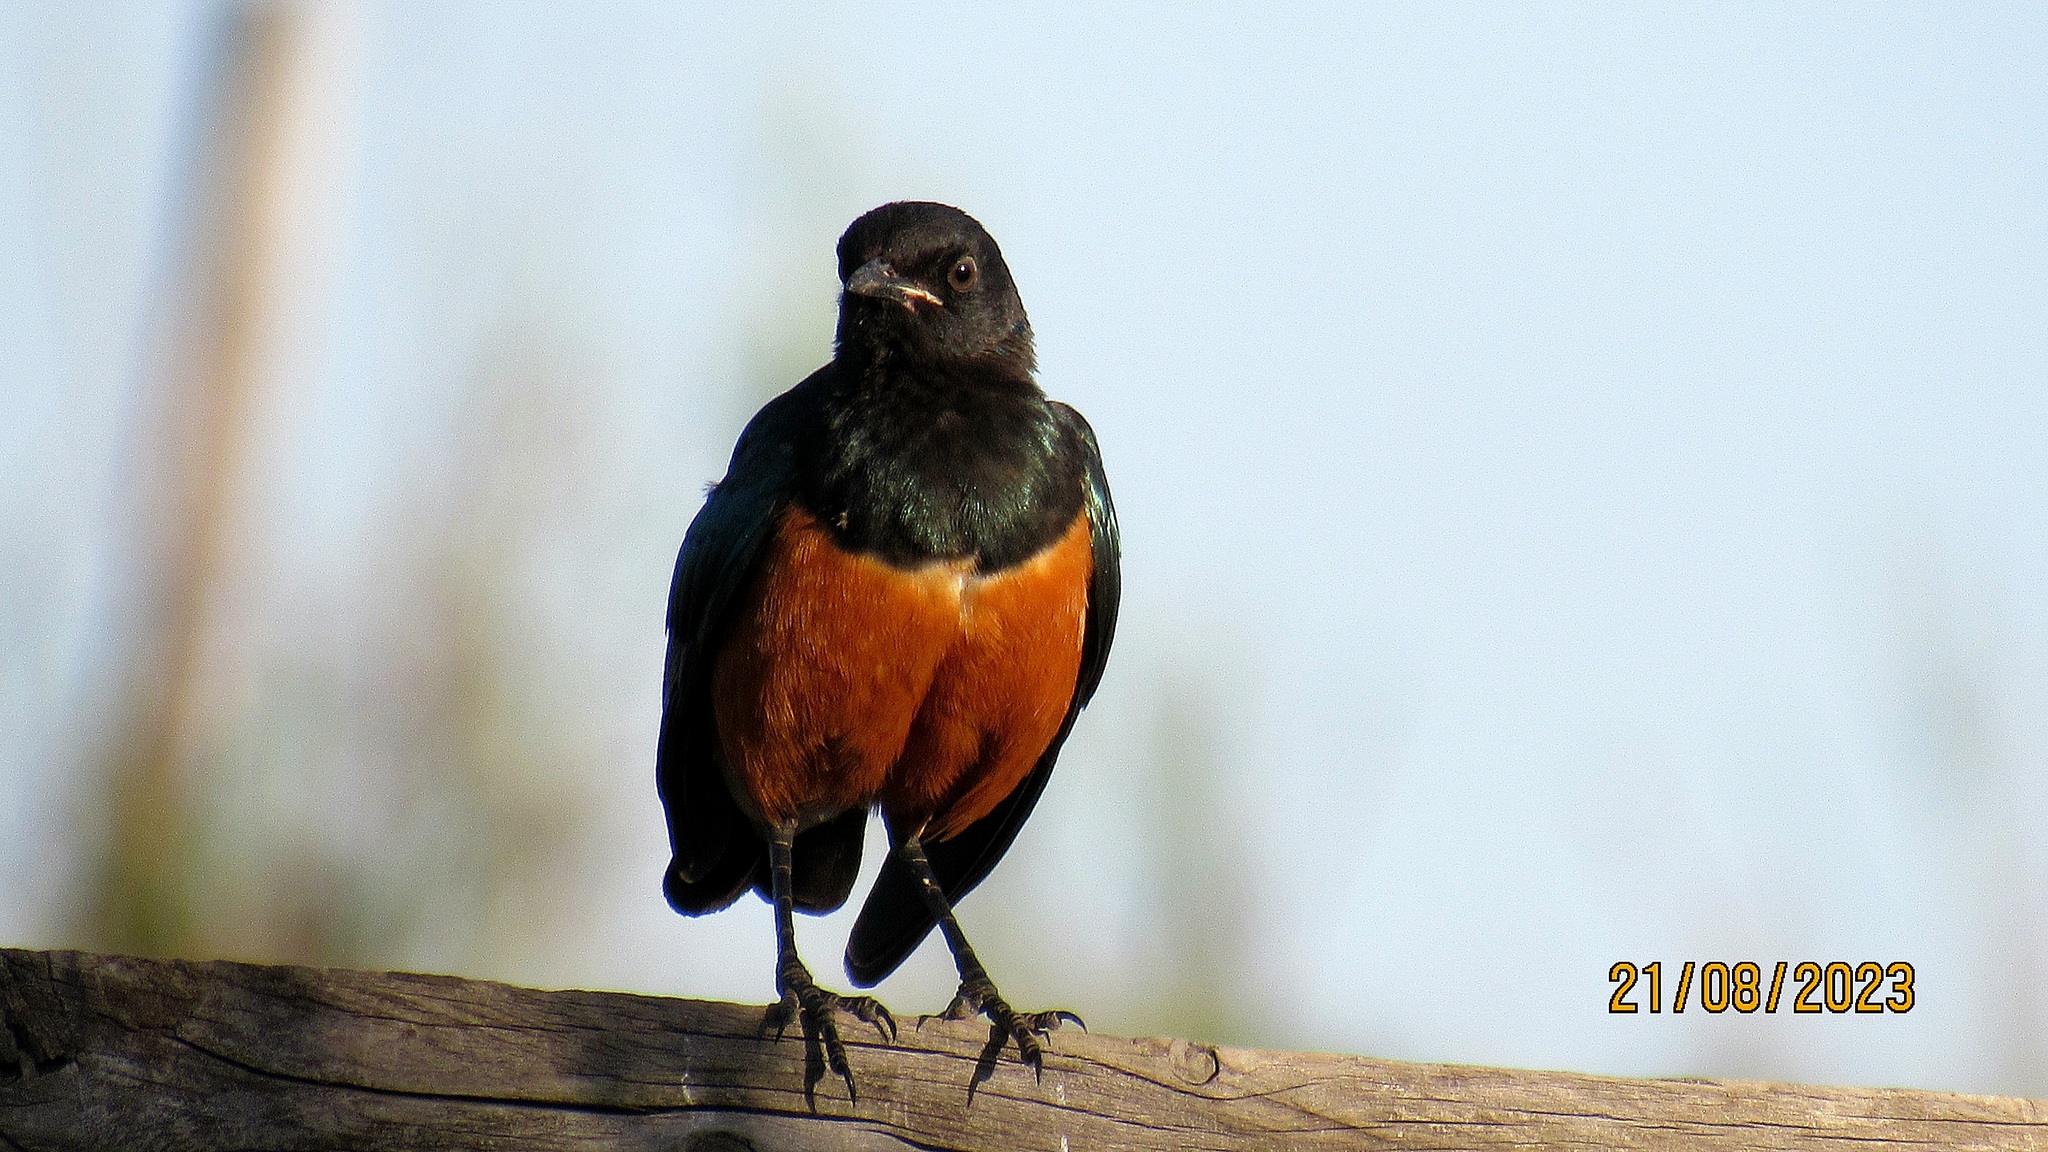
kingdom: Animalia
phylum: Chordata
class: Aves
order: Passeriformes
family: Sturnidae
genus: Lamprotornis
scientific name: Lamprotornis superbus
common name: Superb starling
